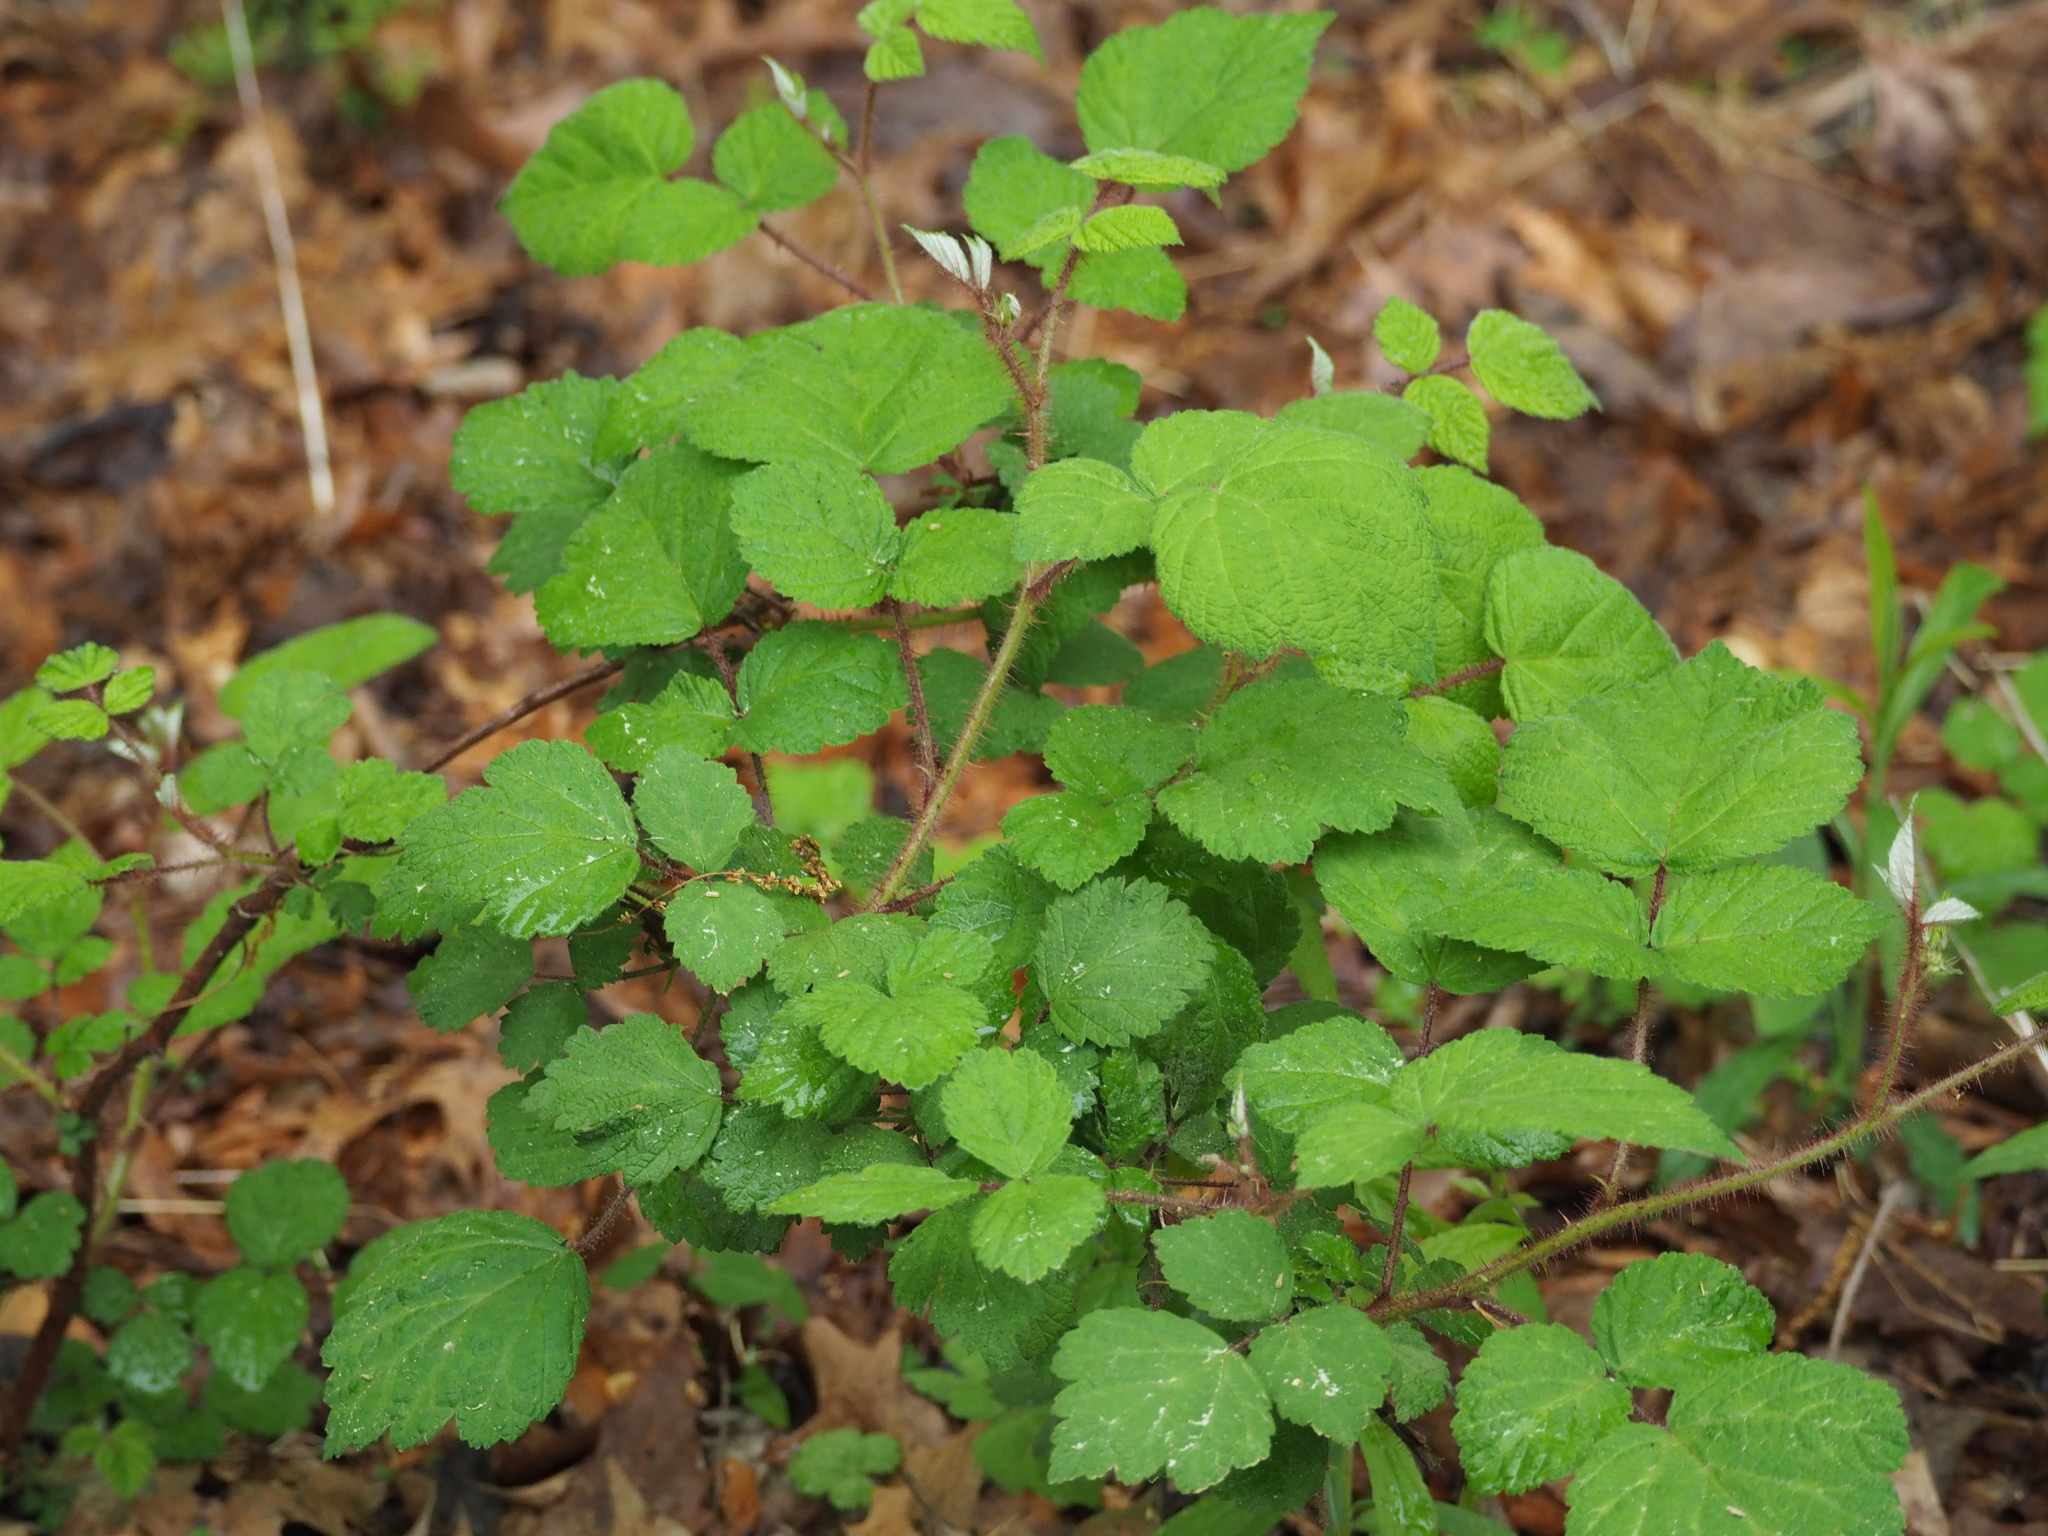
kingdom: Plantae
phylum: Tracheophyta
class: Magnoliopsida
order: Rosales
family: Rosaceae
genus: Rubus
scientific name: Rubus phoenicolasius
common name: Japanese wineberry
